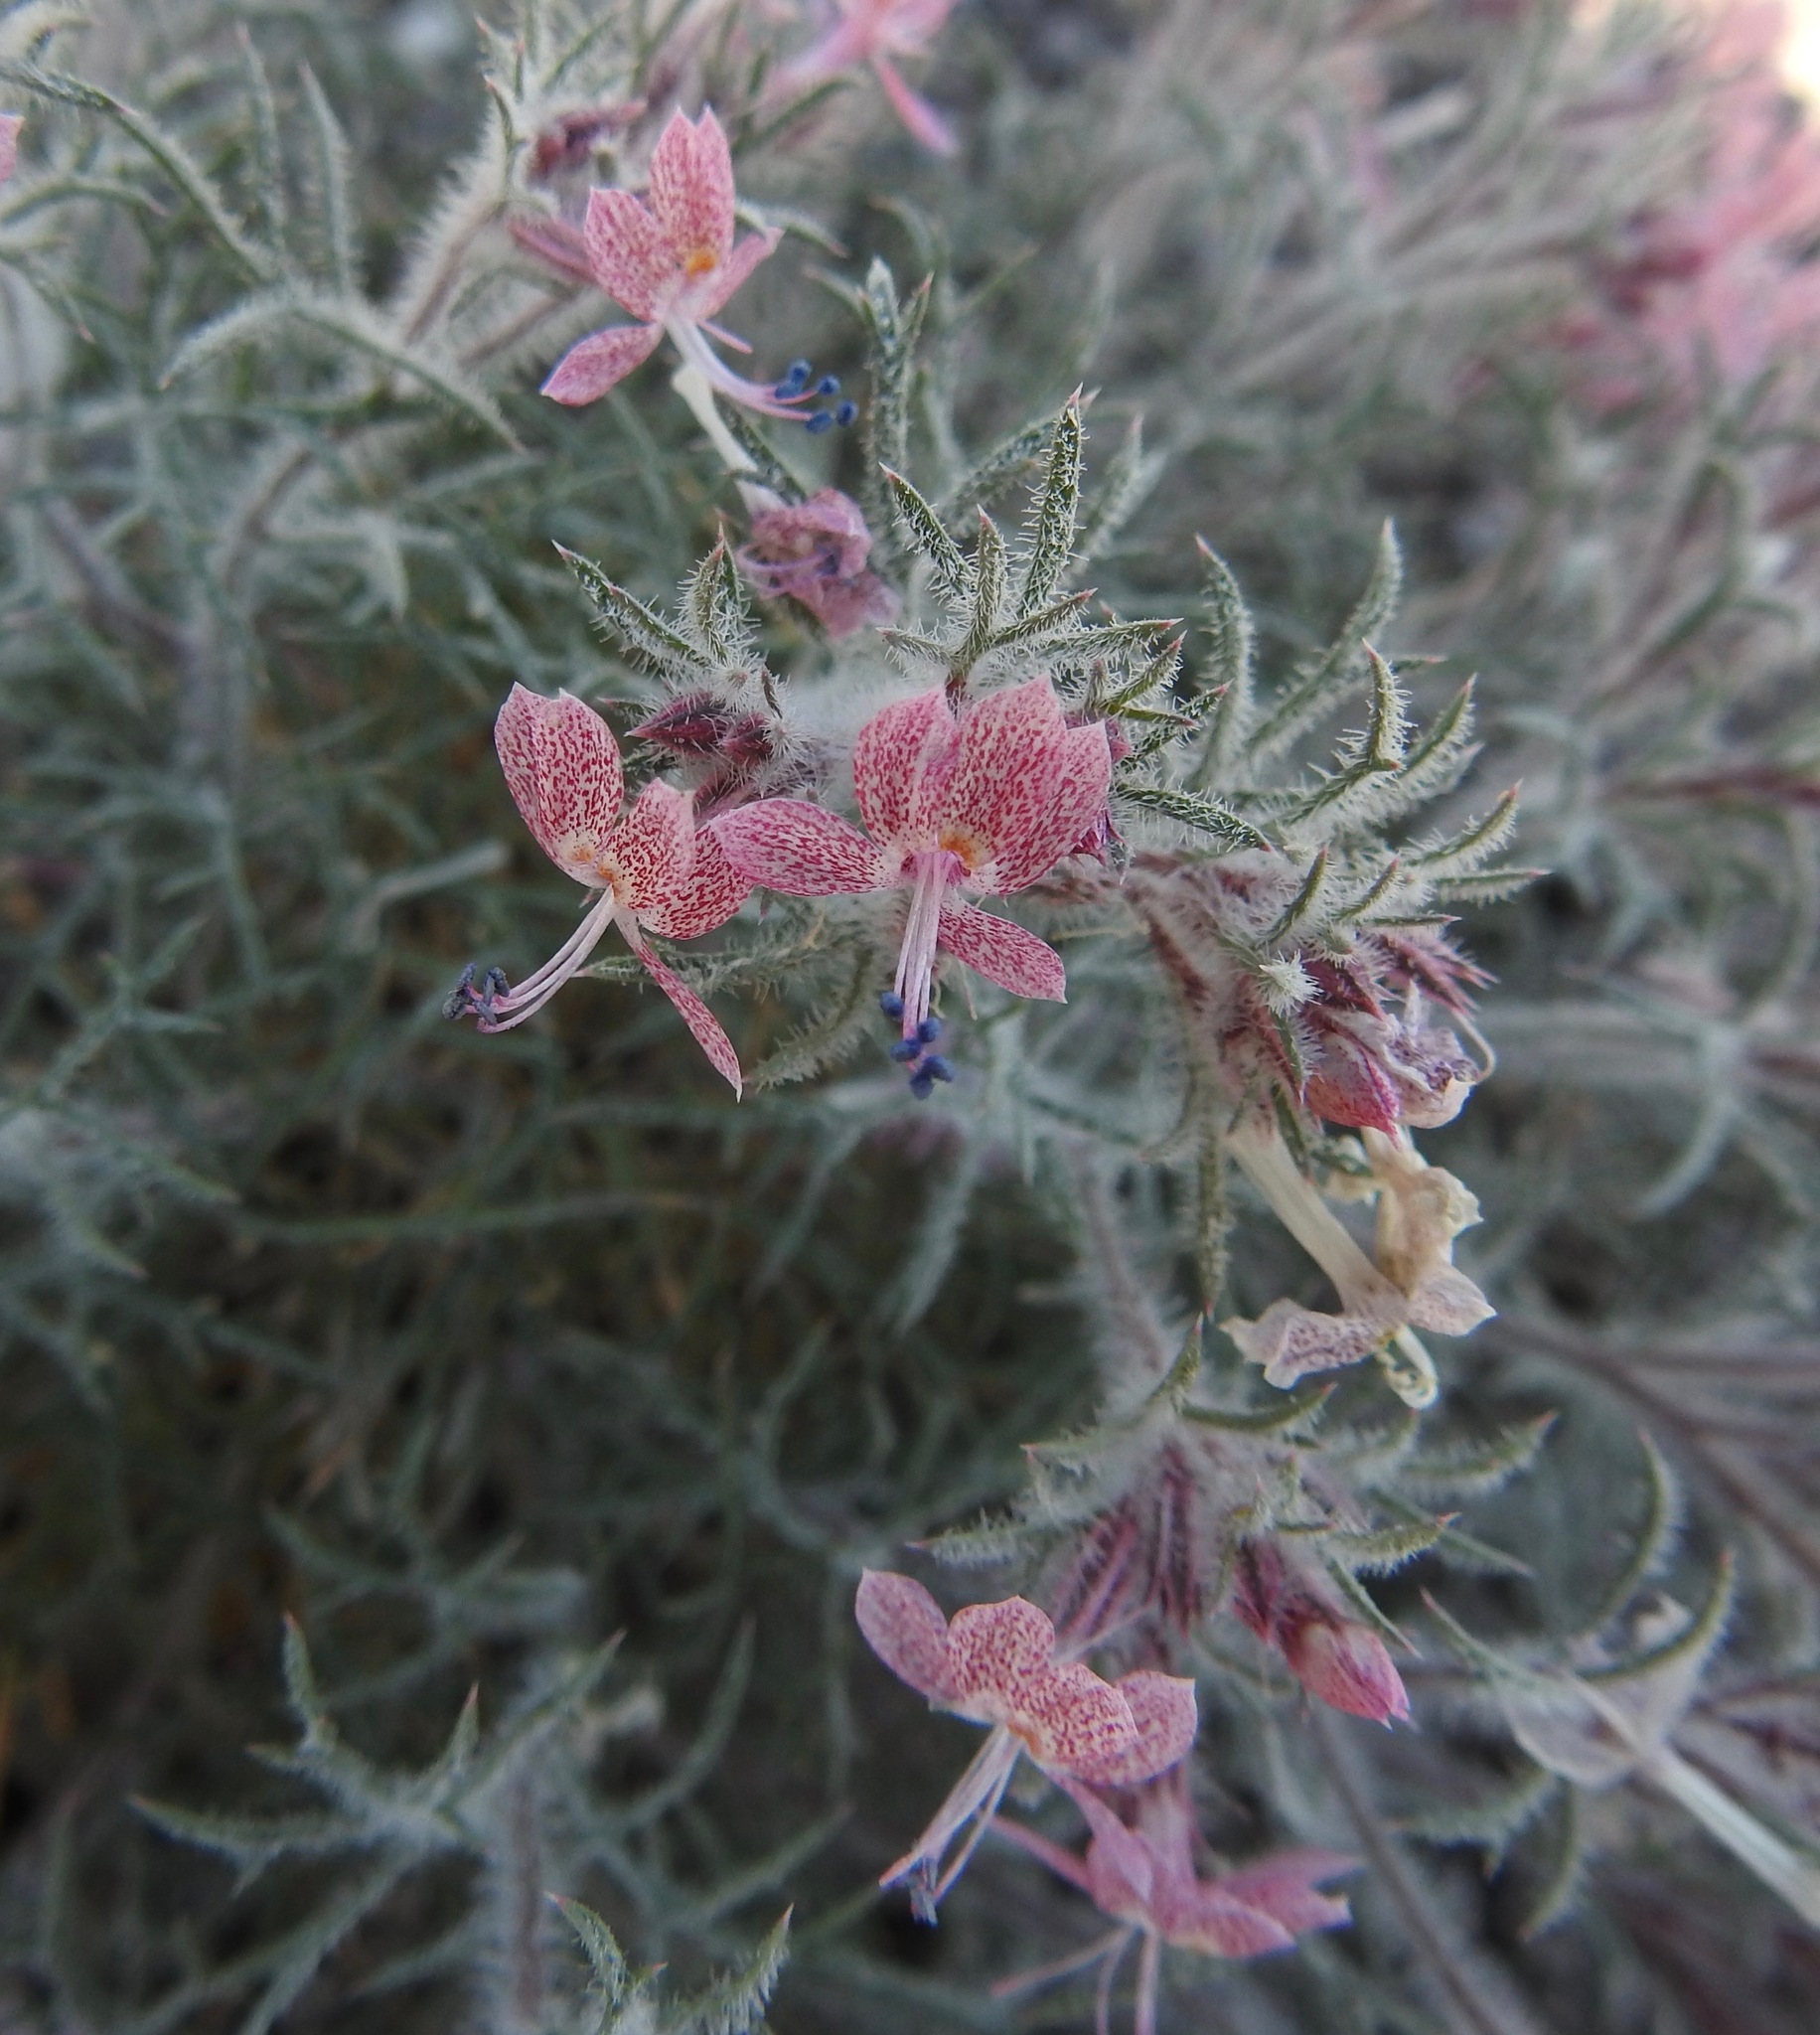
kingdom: Plantae
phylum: Tracheophyta
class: Magnoliopsida
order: Ericales
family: Polemoniaceae
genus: Dayia
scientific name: Dayia havardii
